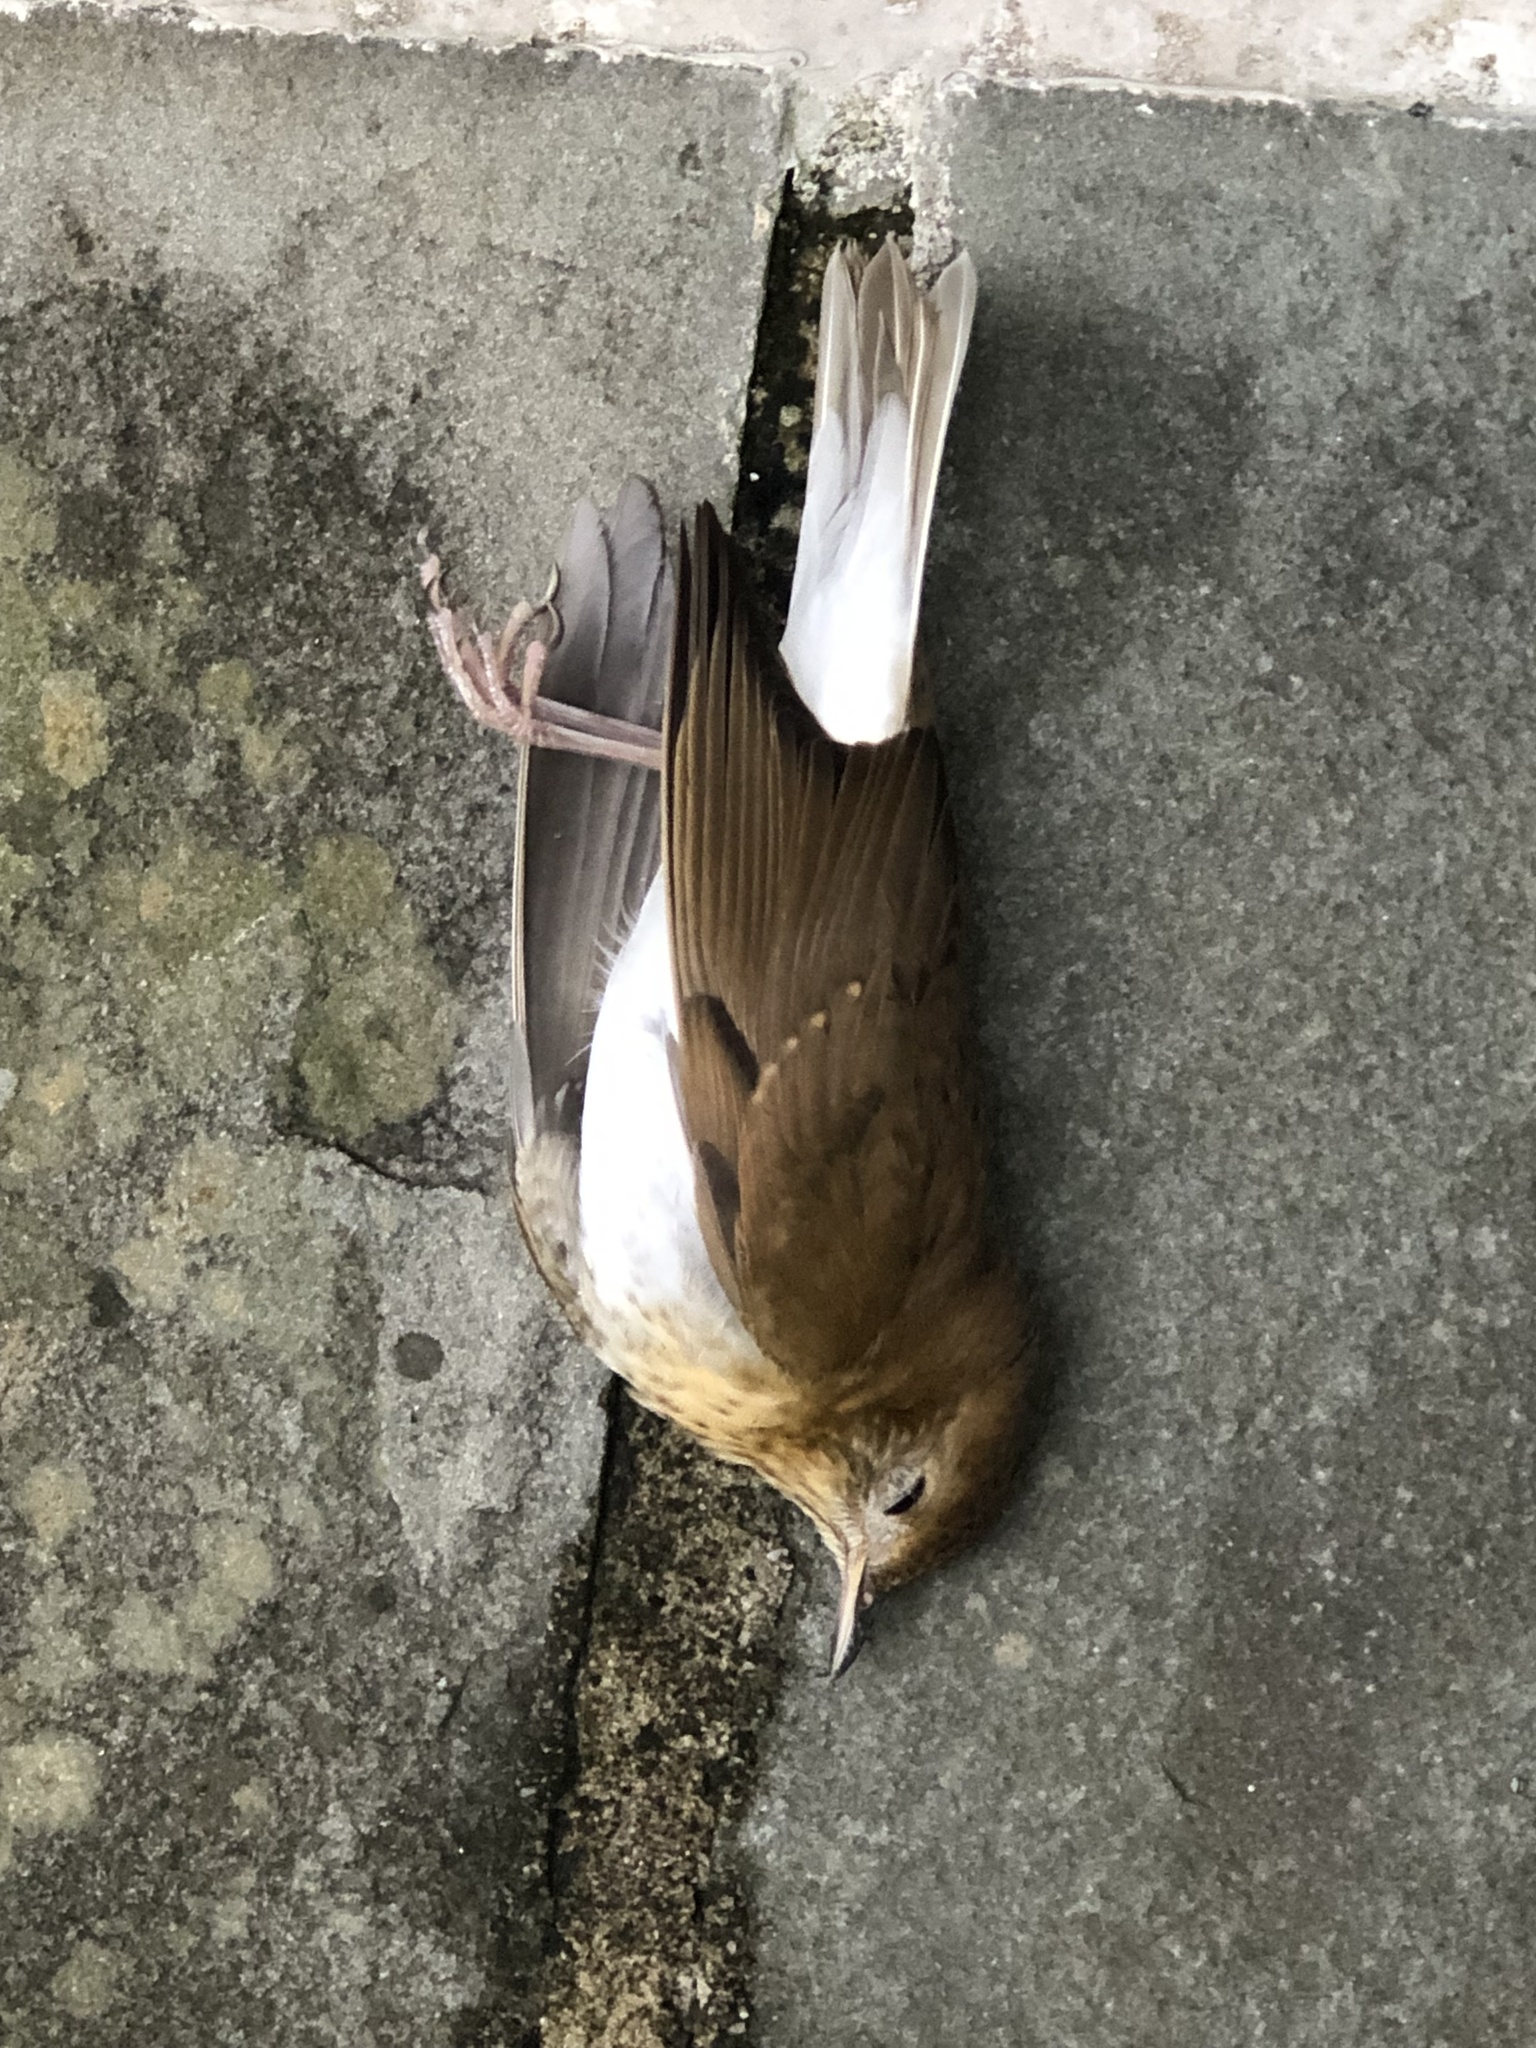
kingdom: Animalia
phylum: Chordata
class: Aves
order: Passeriformes
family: Turdidae
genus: Catharus
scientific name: Catharus fuscescens
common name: Veery
